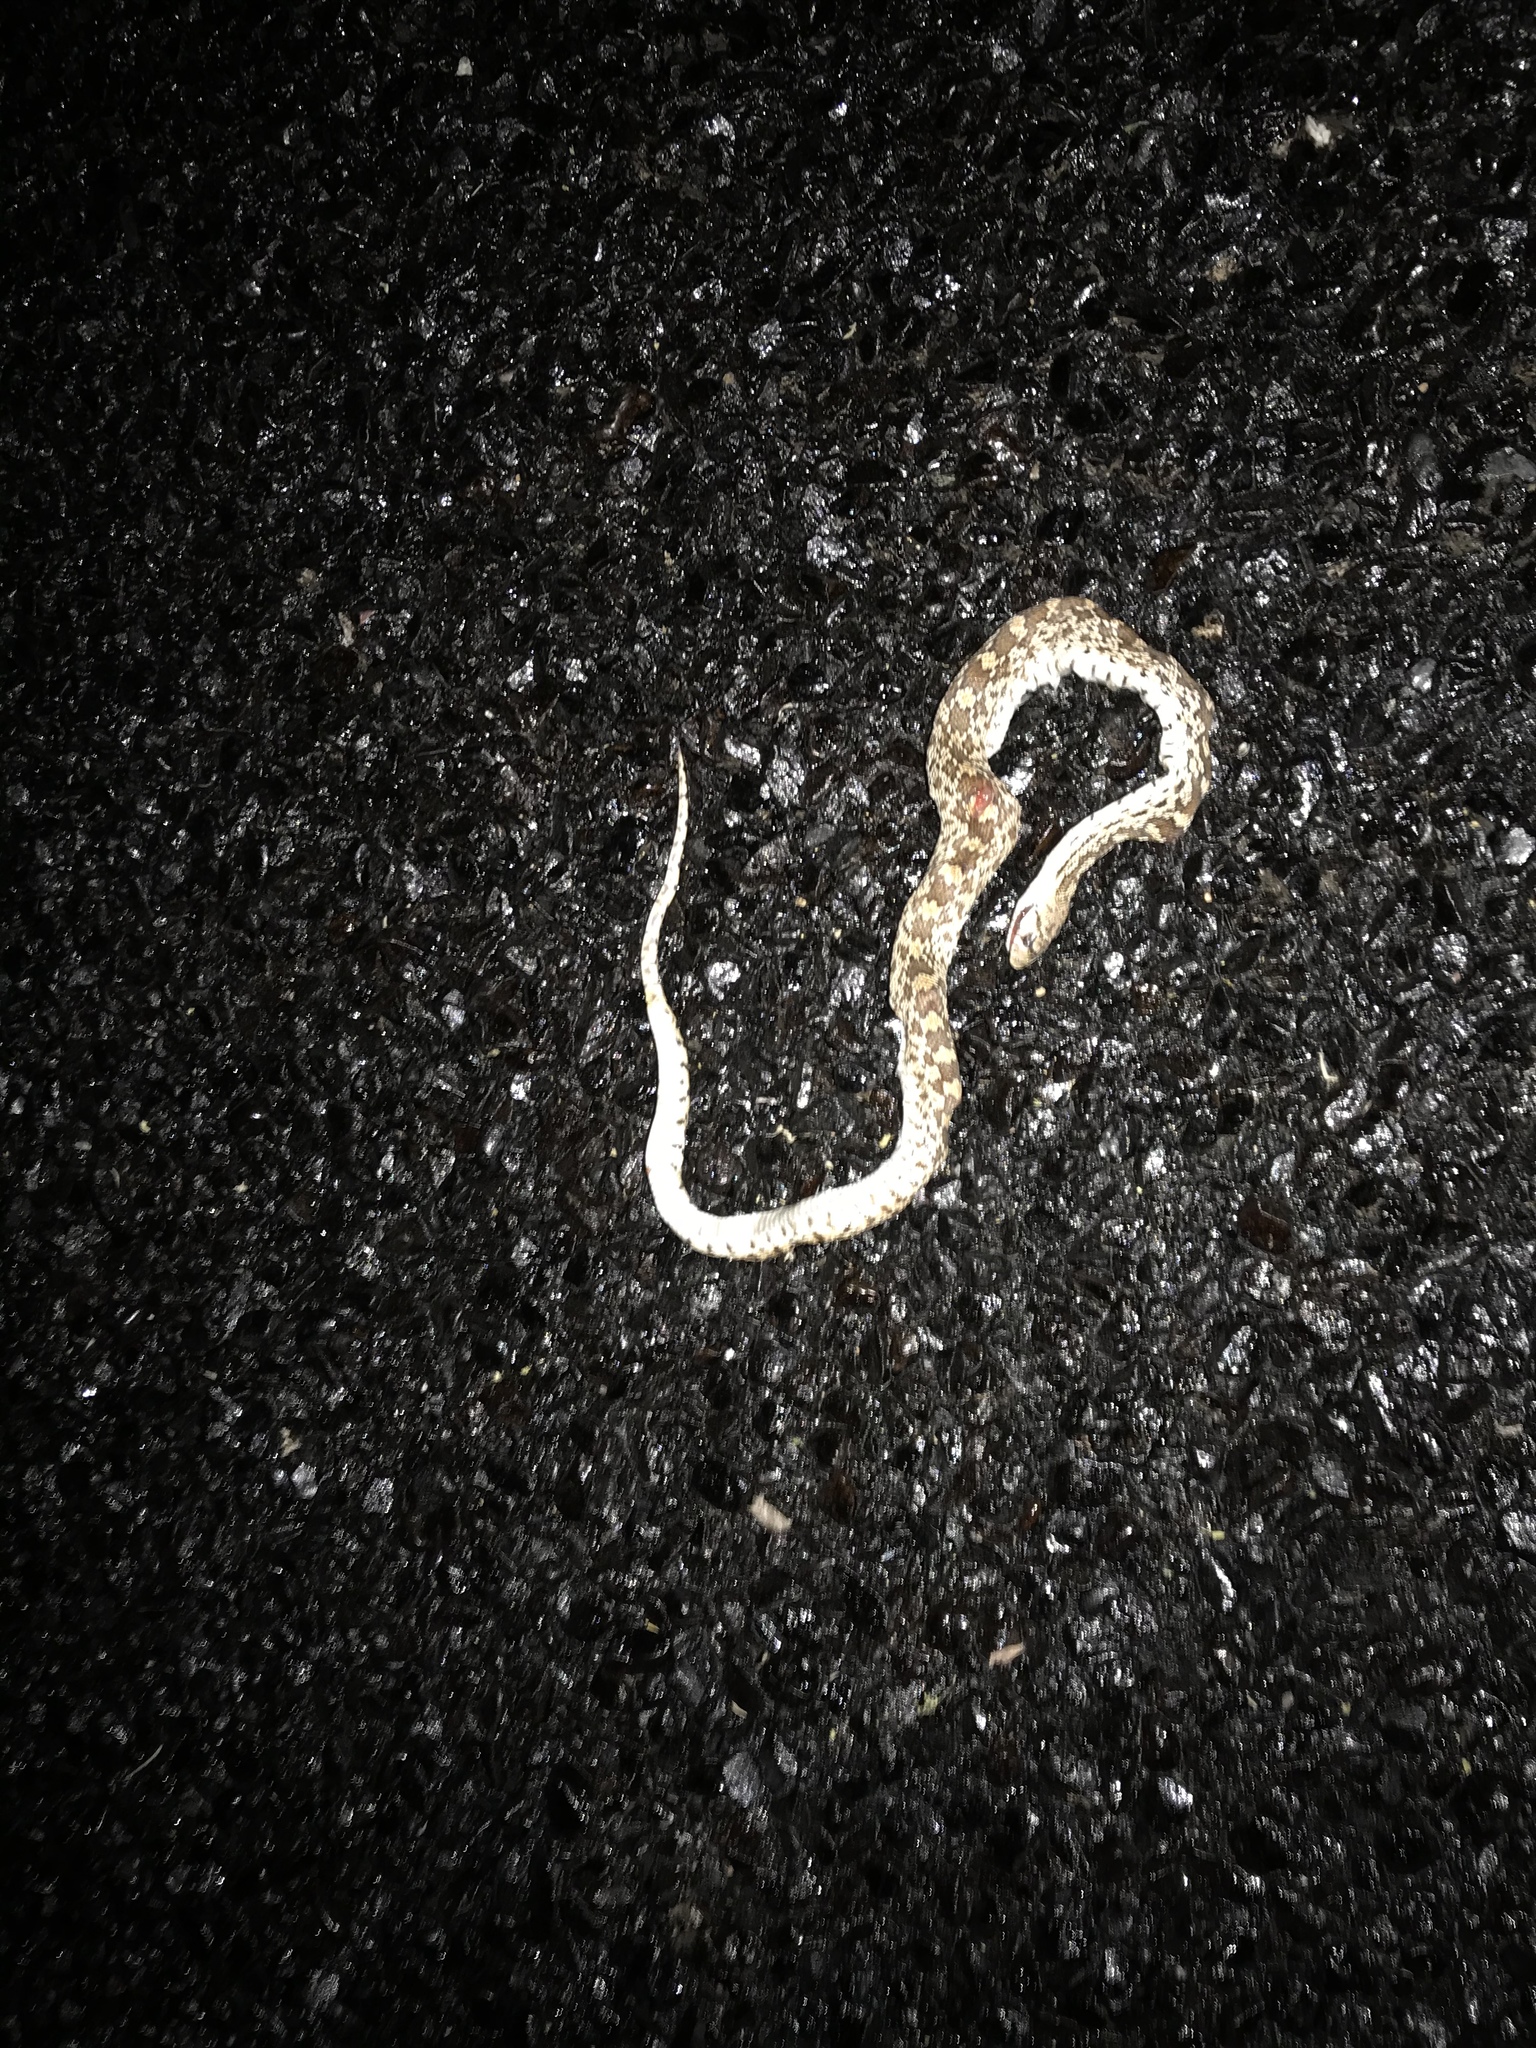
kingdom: Animalia
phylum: Chordata
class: Squamata
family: Colubridae
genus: Pituophis
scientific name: Pituophis catenifer
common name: Gopher snake
